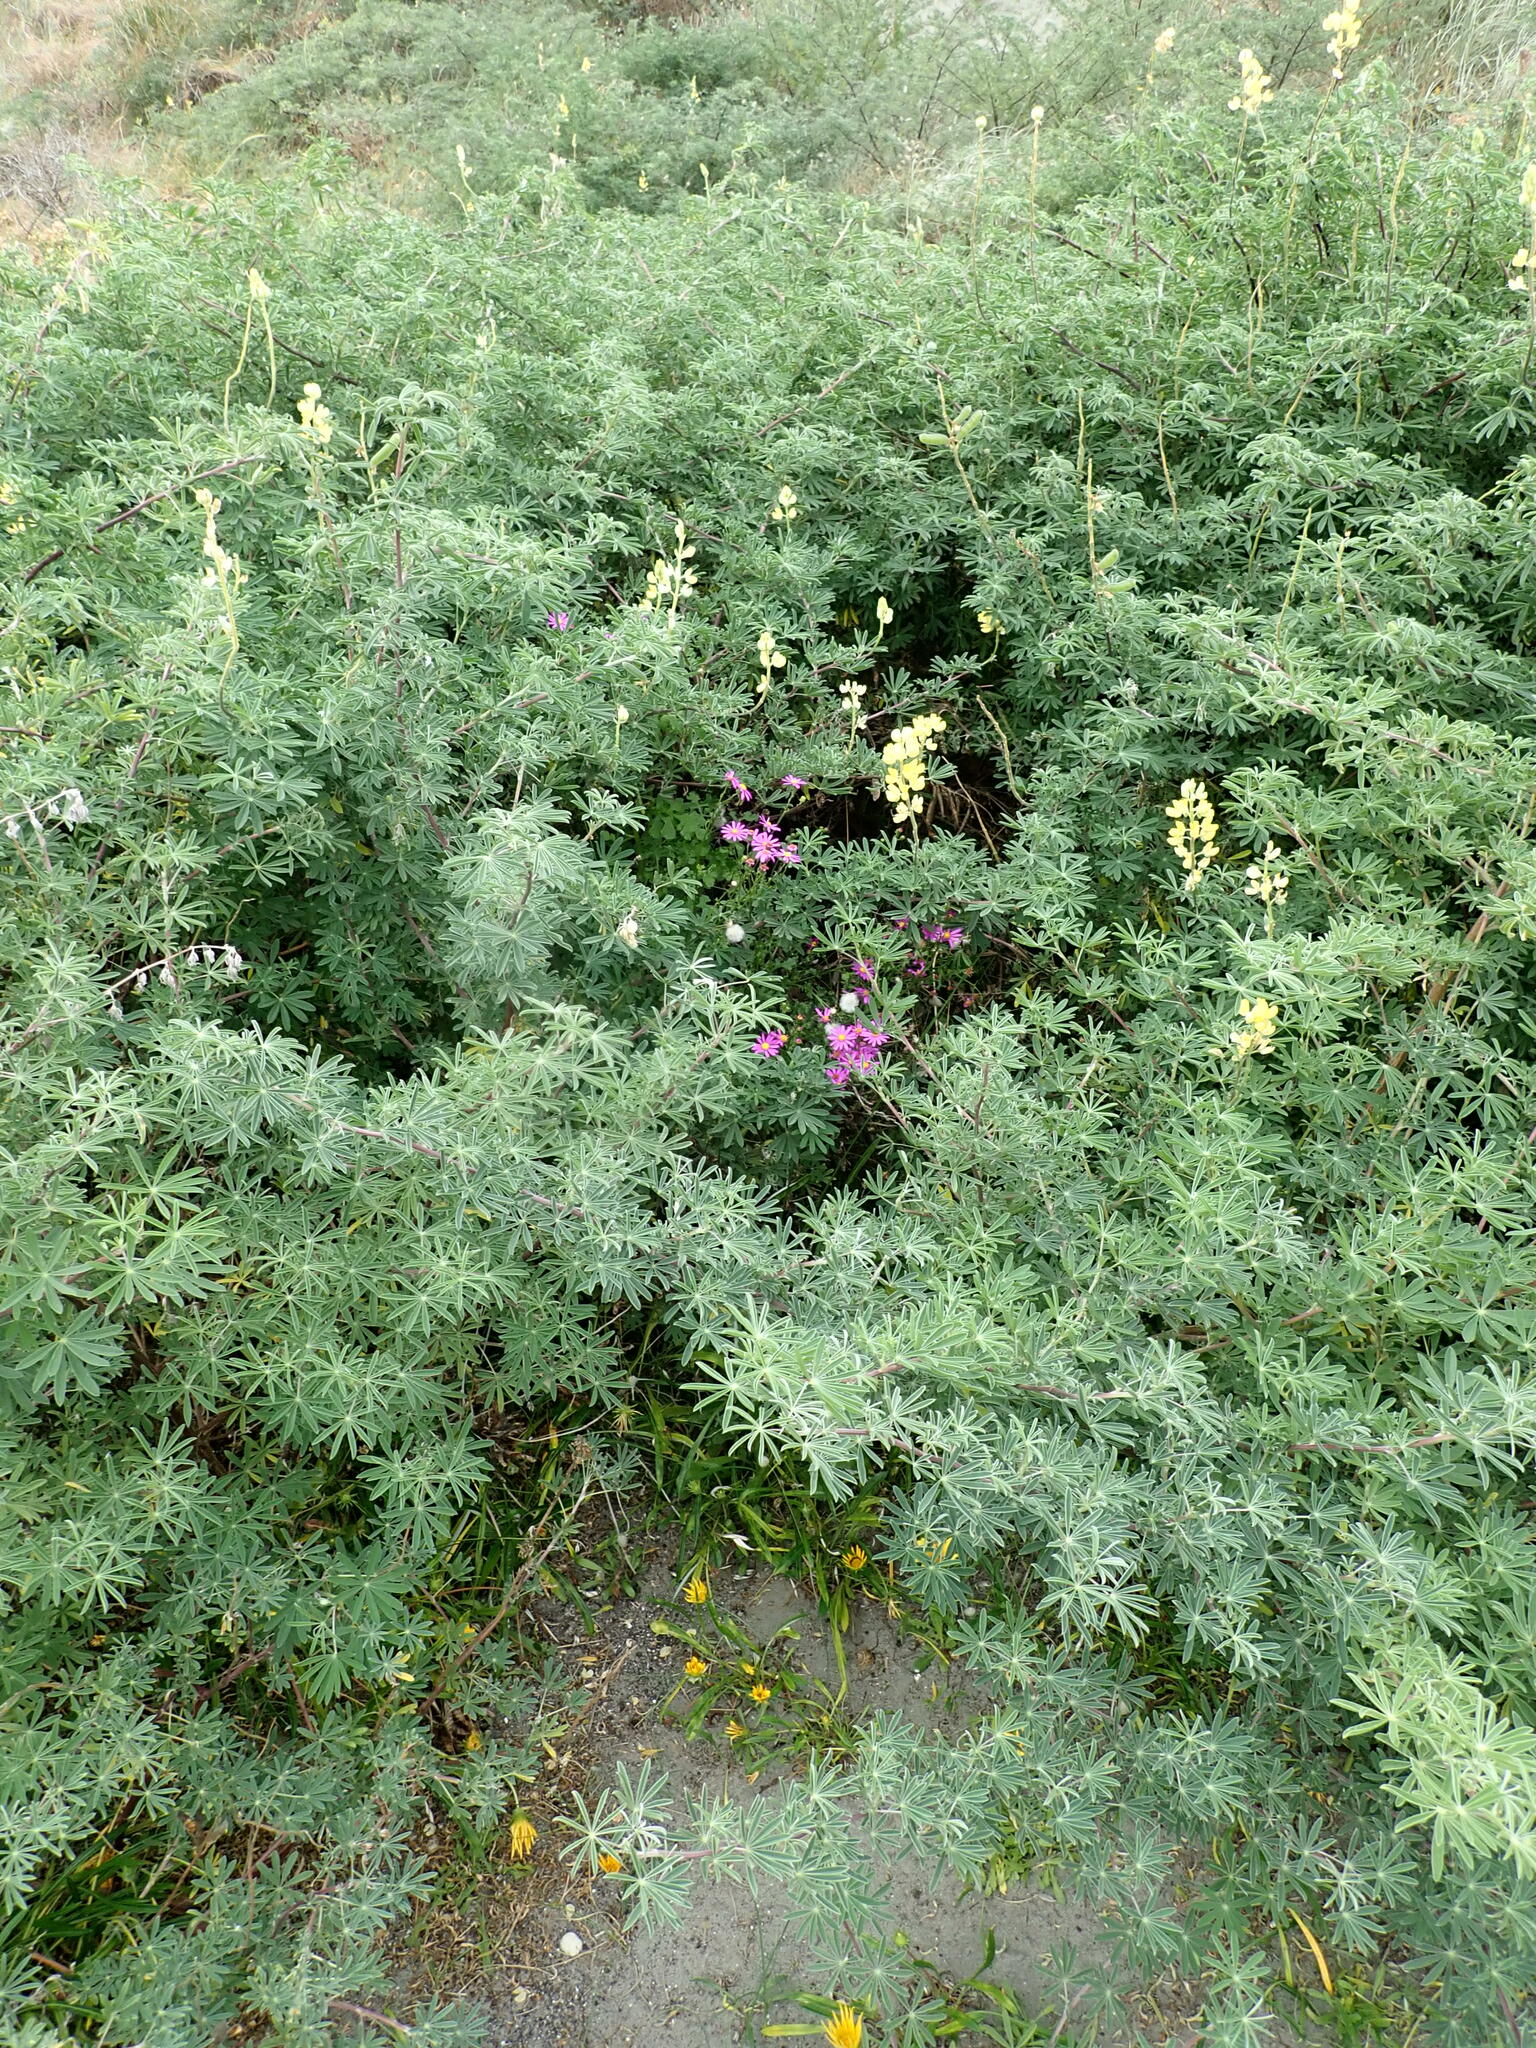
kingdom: Plantae
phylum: Tracheophyta
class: Magnoliopsida
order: Asterales
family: Asteraceae
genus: Senecio
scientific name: Senecio elegans
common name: Purple groundsel
